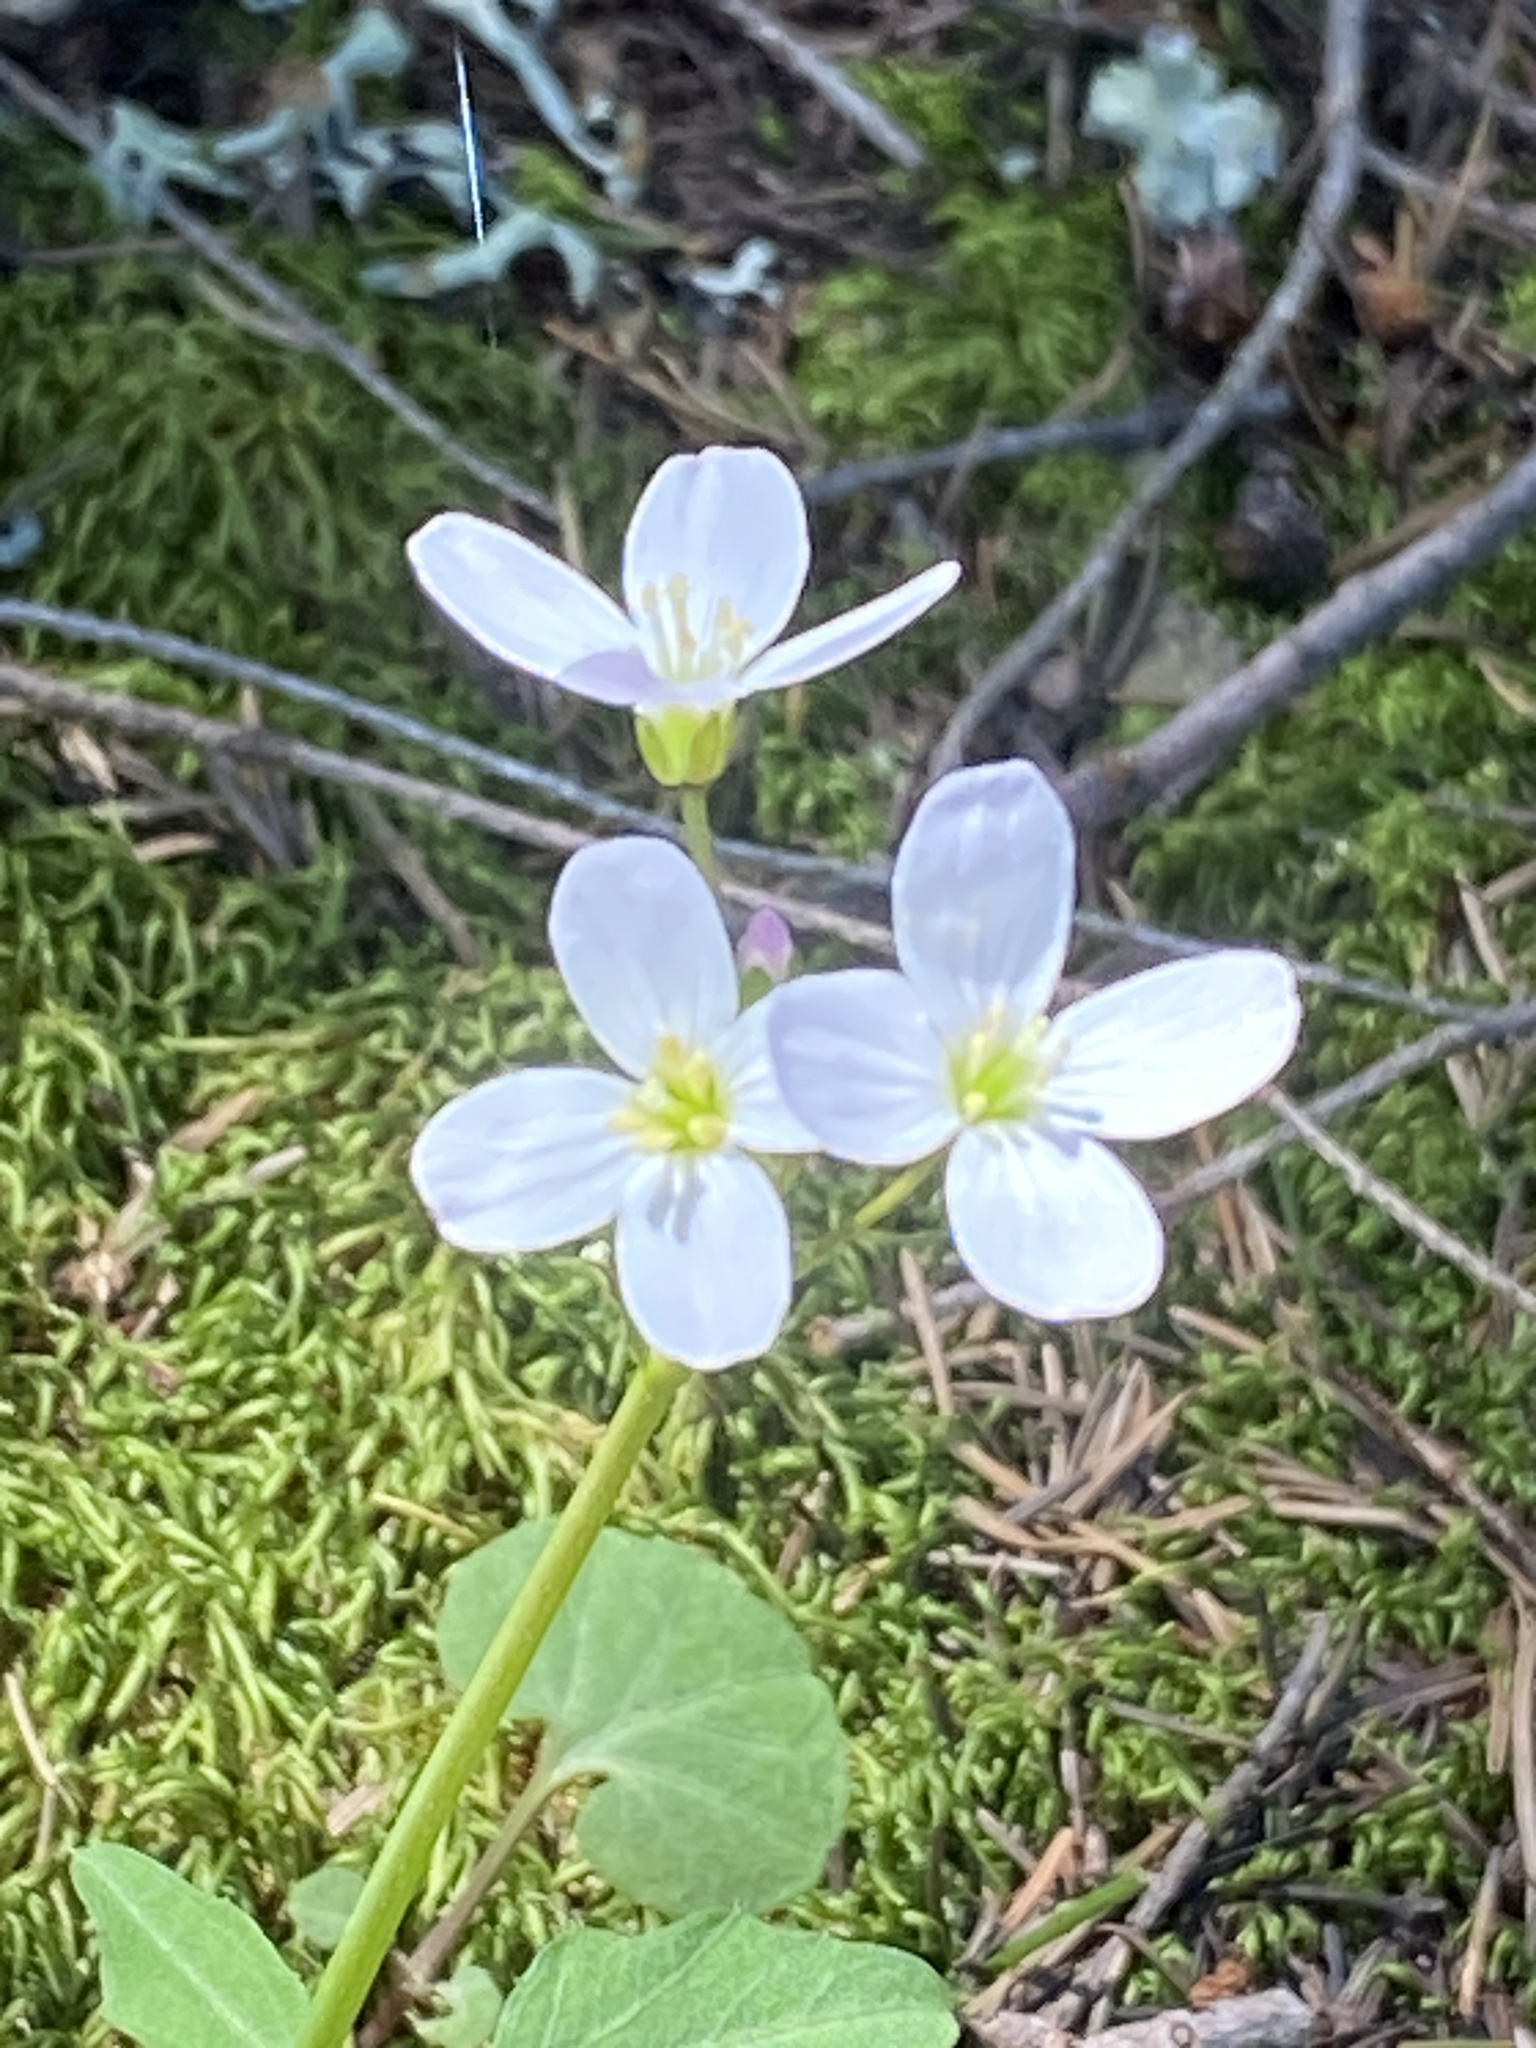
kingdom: Plantae
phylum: Tracheophyta
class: Magnoliopsida
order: Brassicales
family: Brassicaceae
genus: Cardamine
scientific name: Cardamine californica
